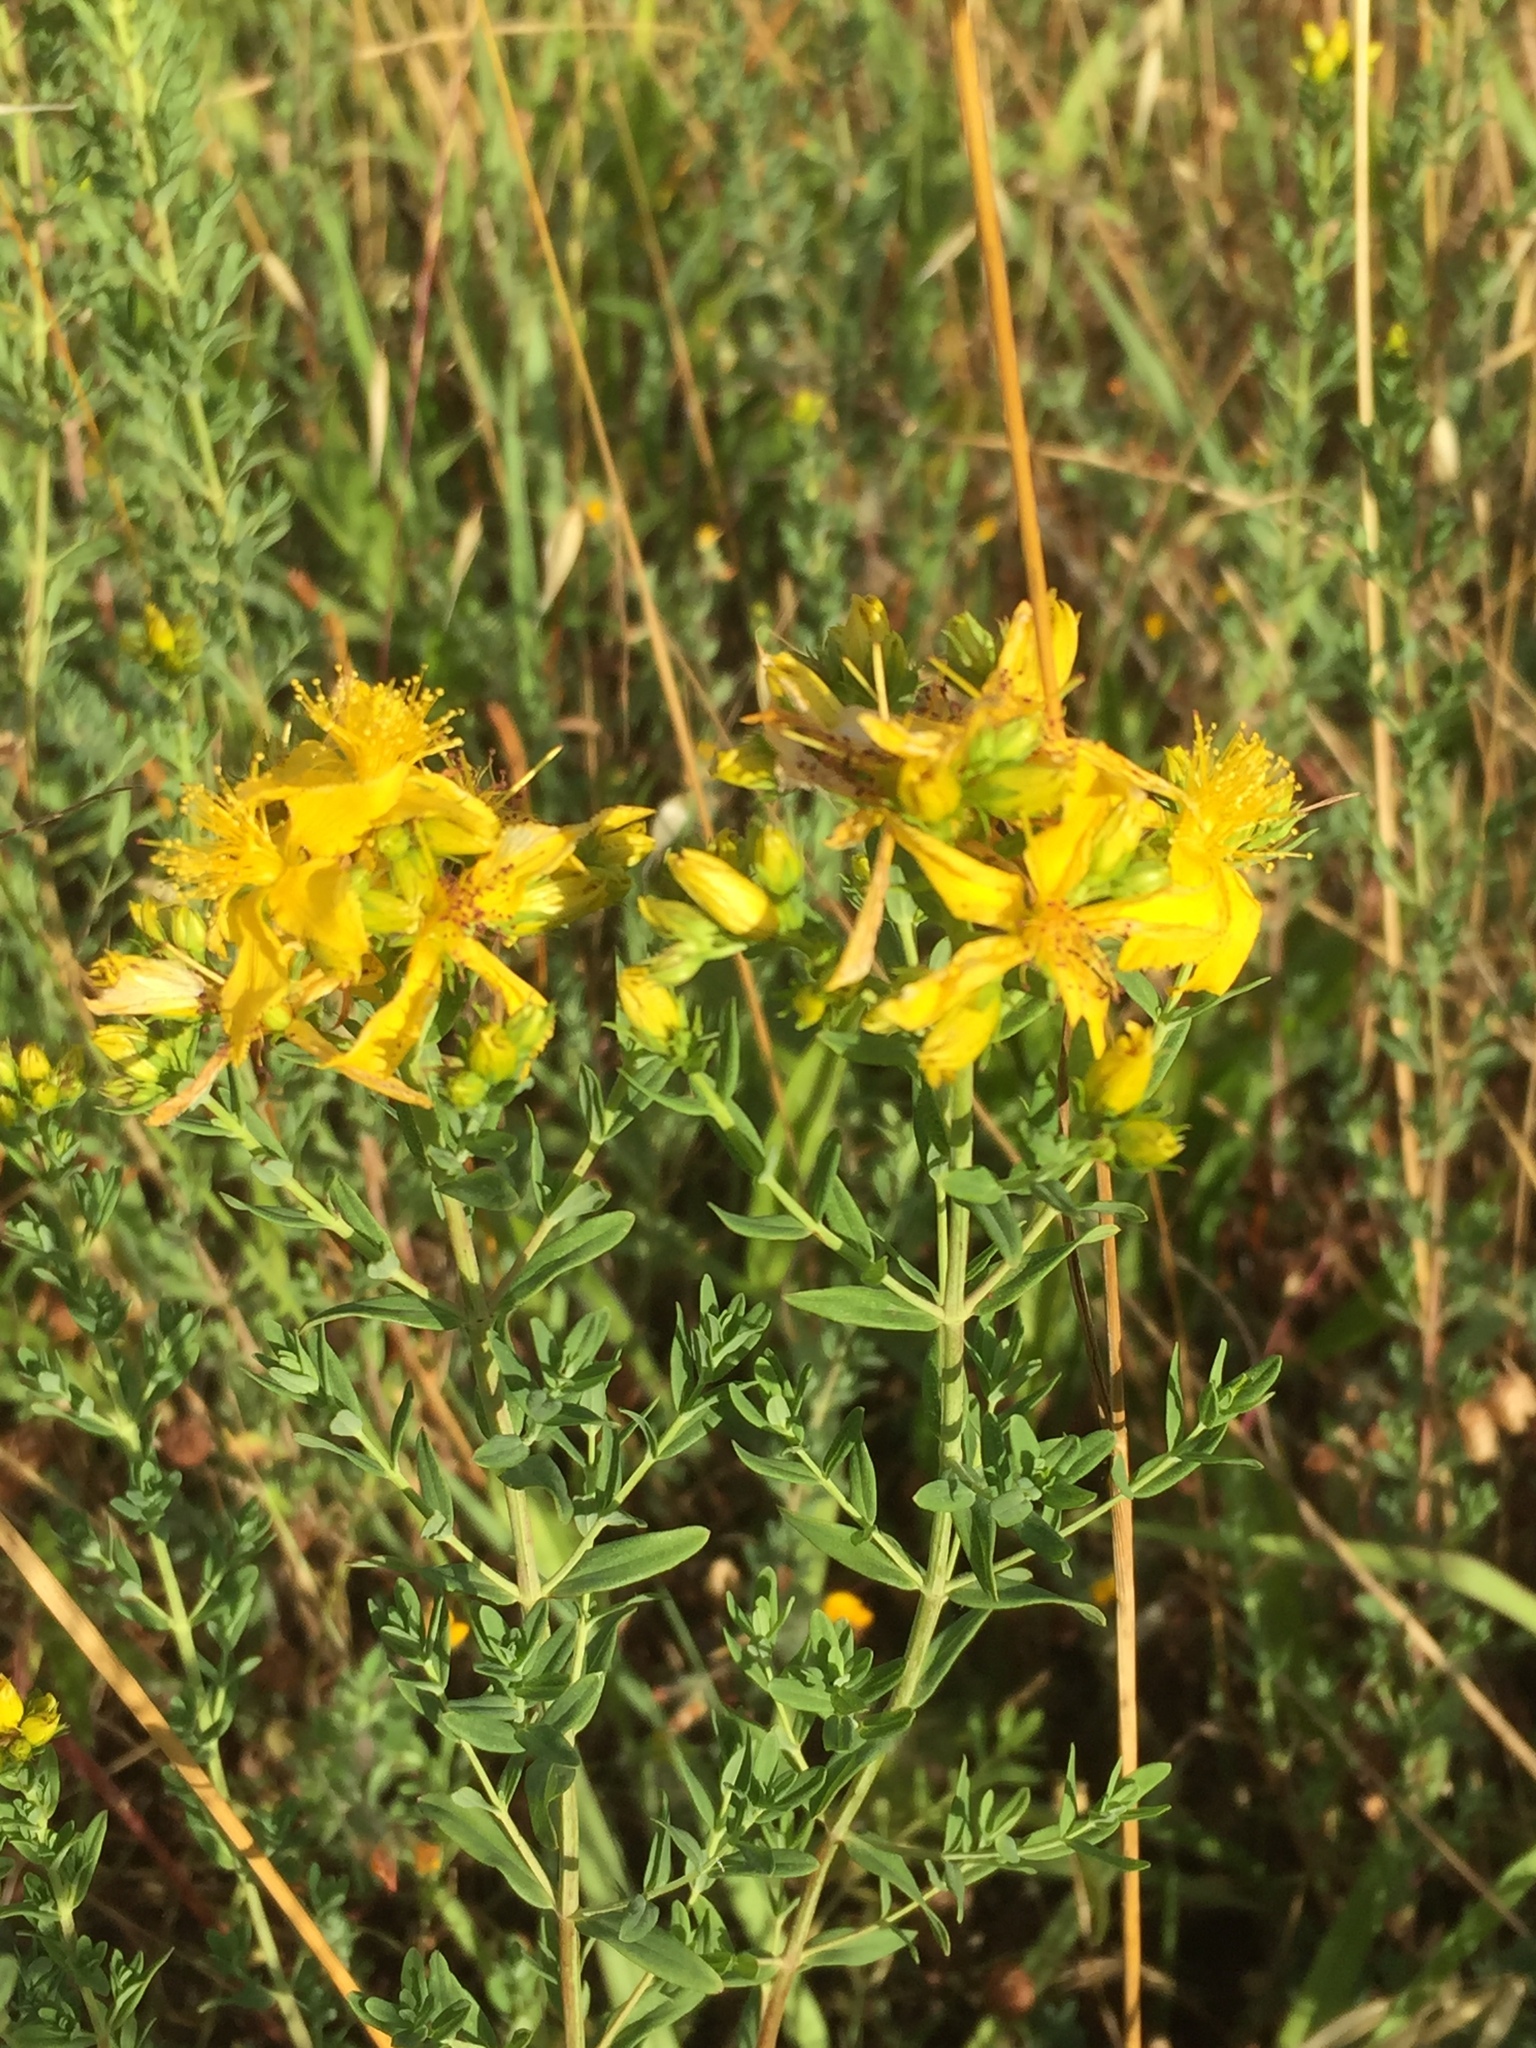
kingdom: Plantae
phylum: Tracheophyta
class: Magnoliopsida
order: Malpighiales
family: Hypericaceae
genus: Hypericum
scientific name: Hypericum perforatum
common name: Common st. johnswort
